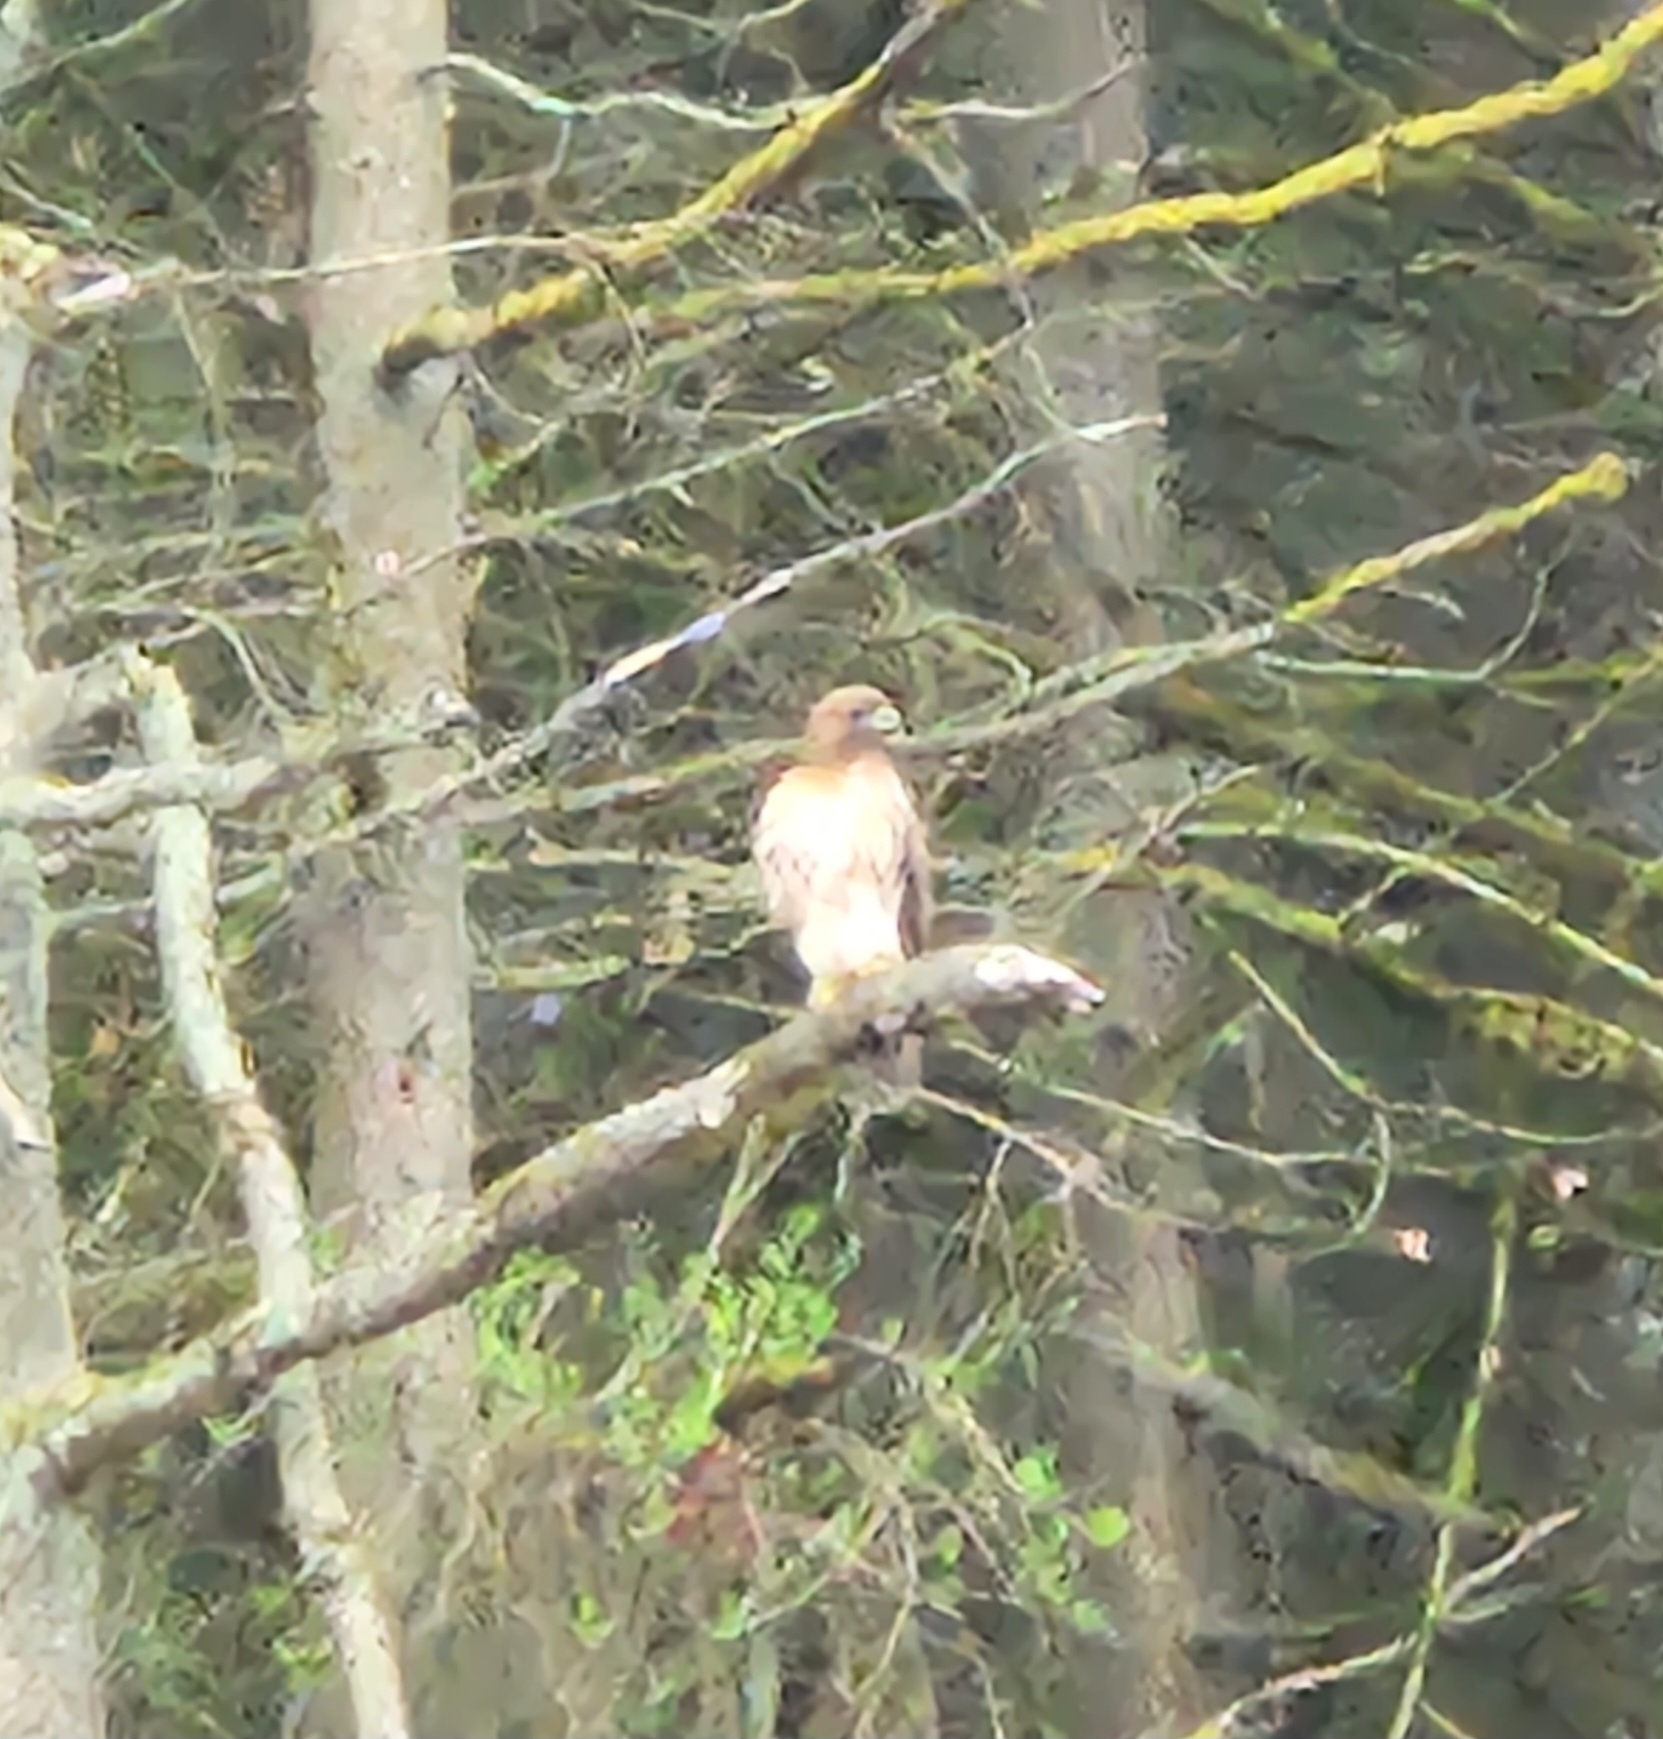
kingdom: Animalia
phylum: Chordata
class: Aves
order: Accipitriformes
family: Accipitridae
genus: Buteo
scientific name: Buteo jamaicensis
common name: Red-tailed hawk
